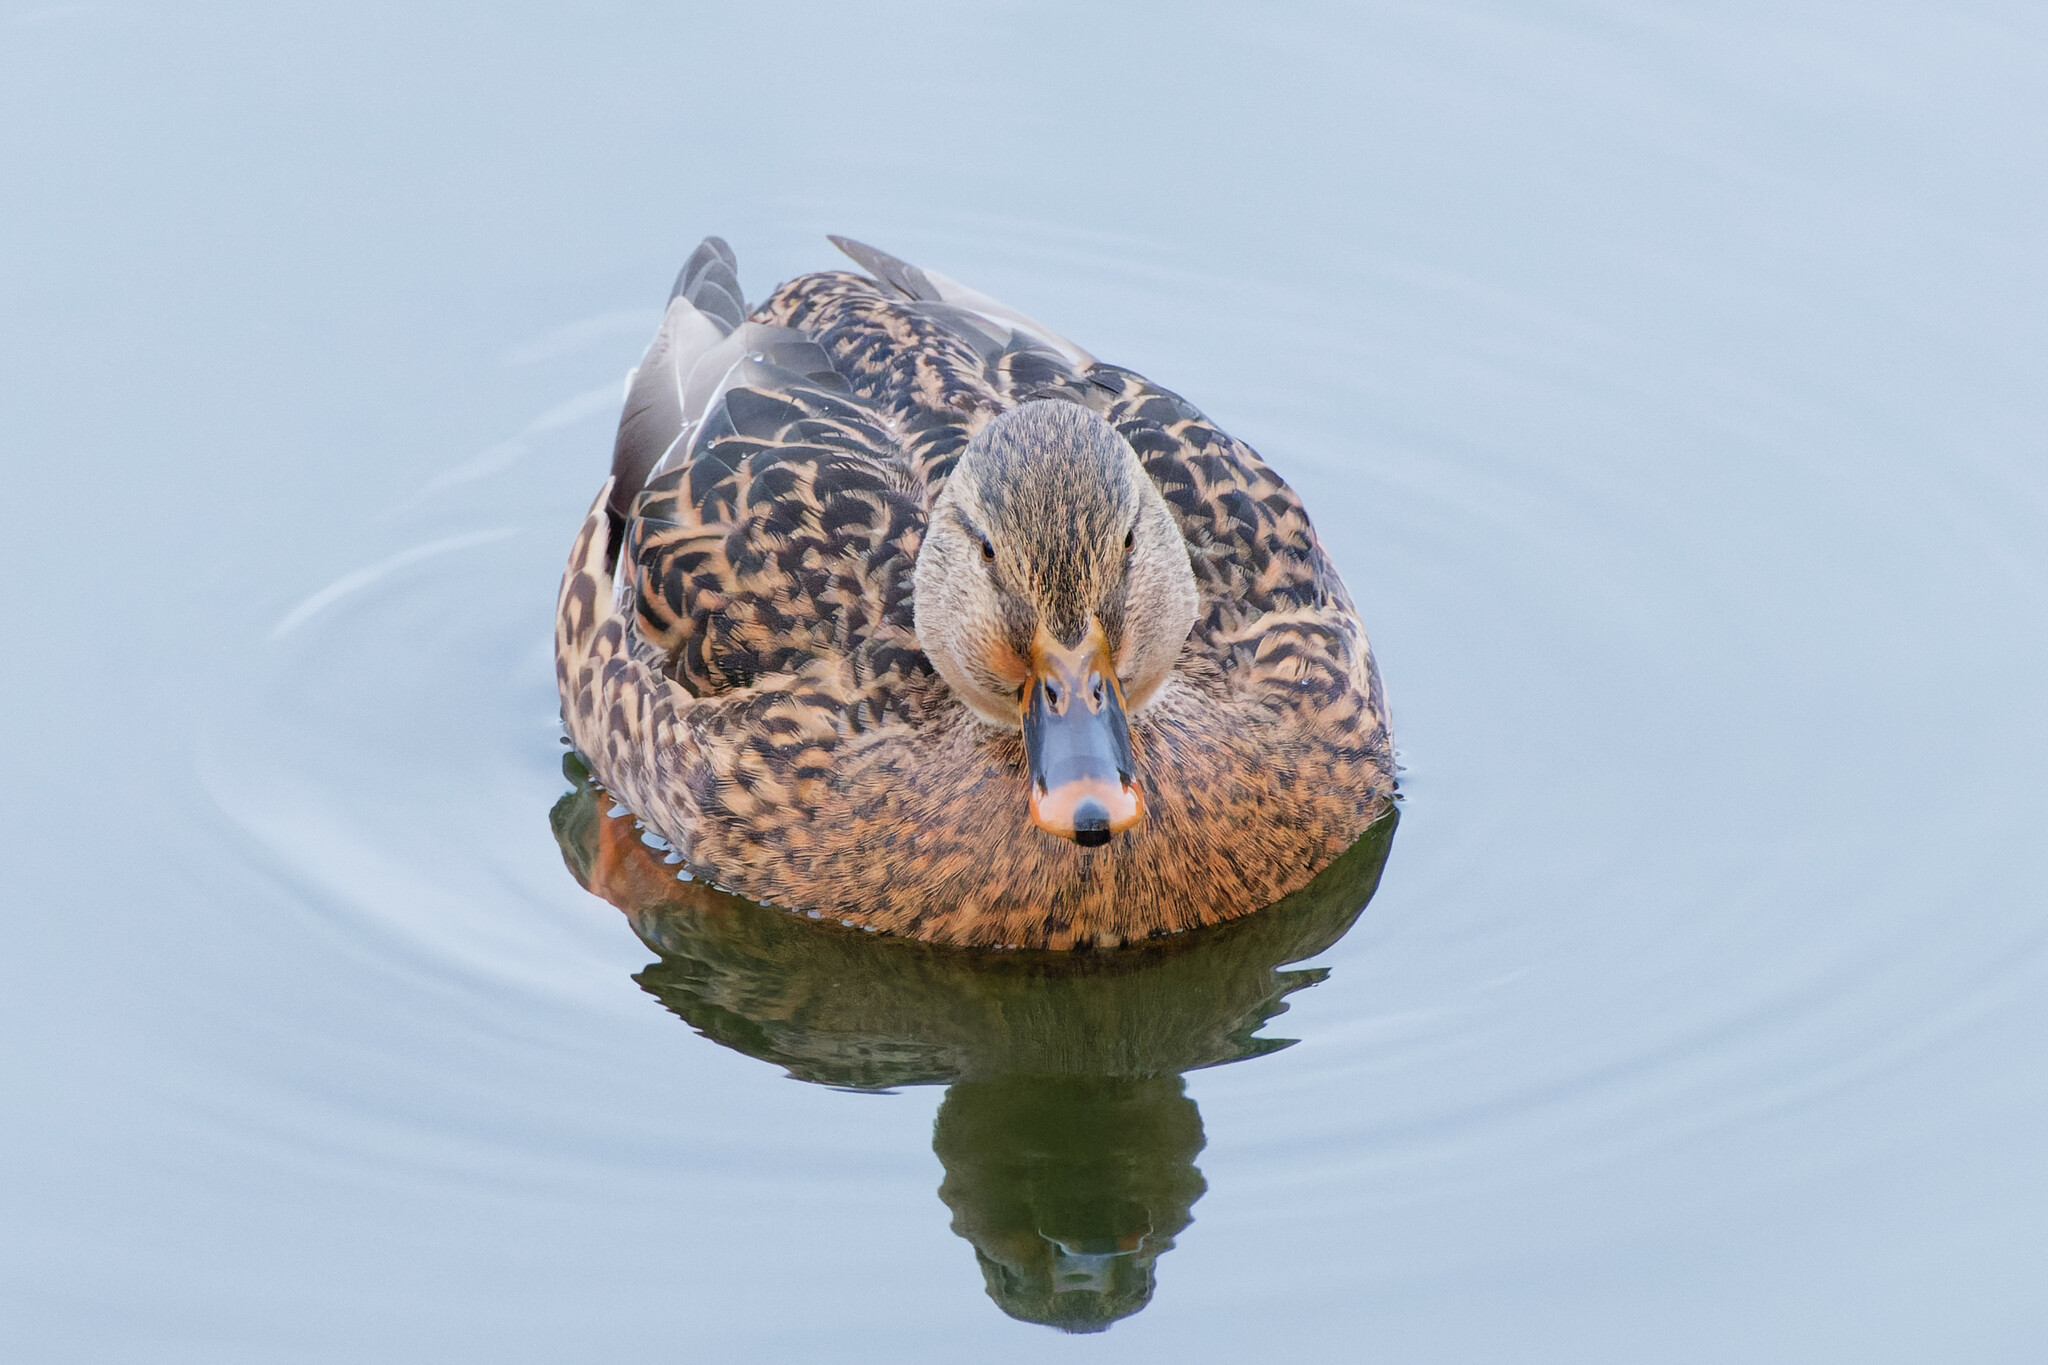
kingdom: Animalia
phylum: Chordata
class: Aves
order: Anseriformes
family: Anatidae
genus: Anas
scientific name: Anas platyrhynchos
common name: Mallard
